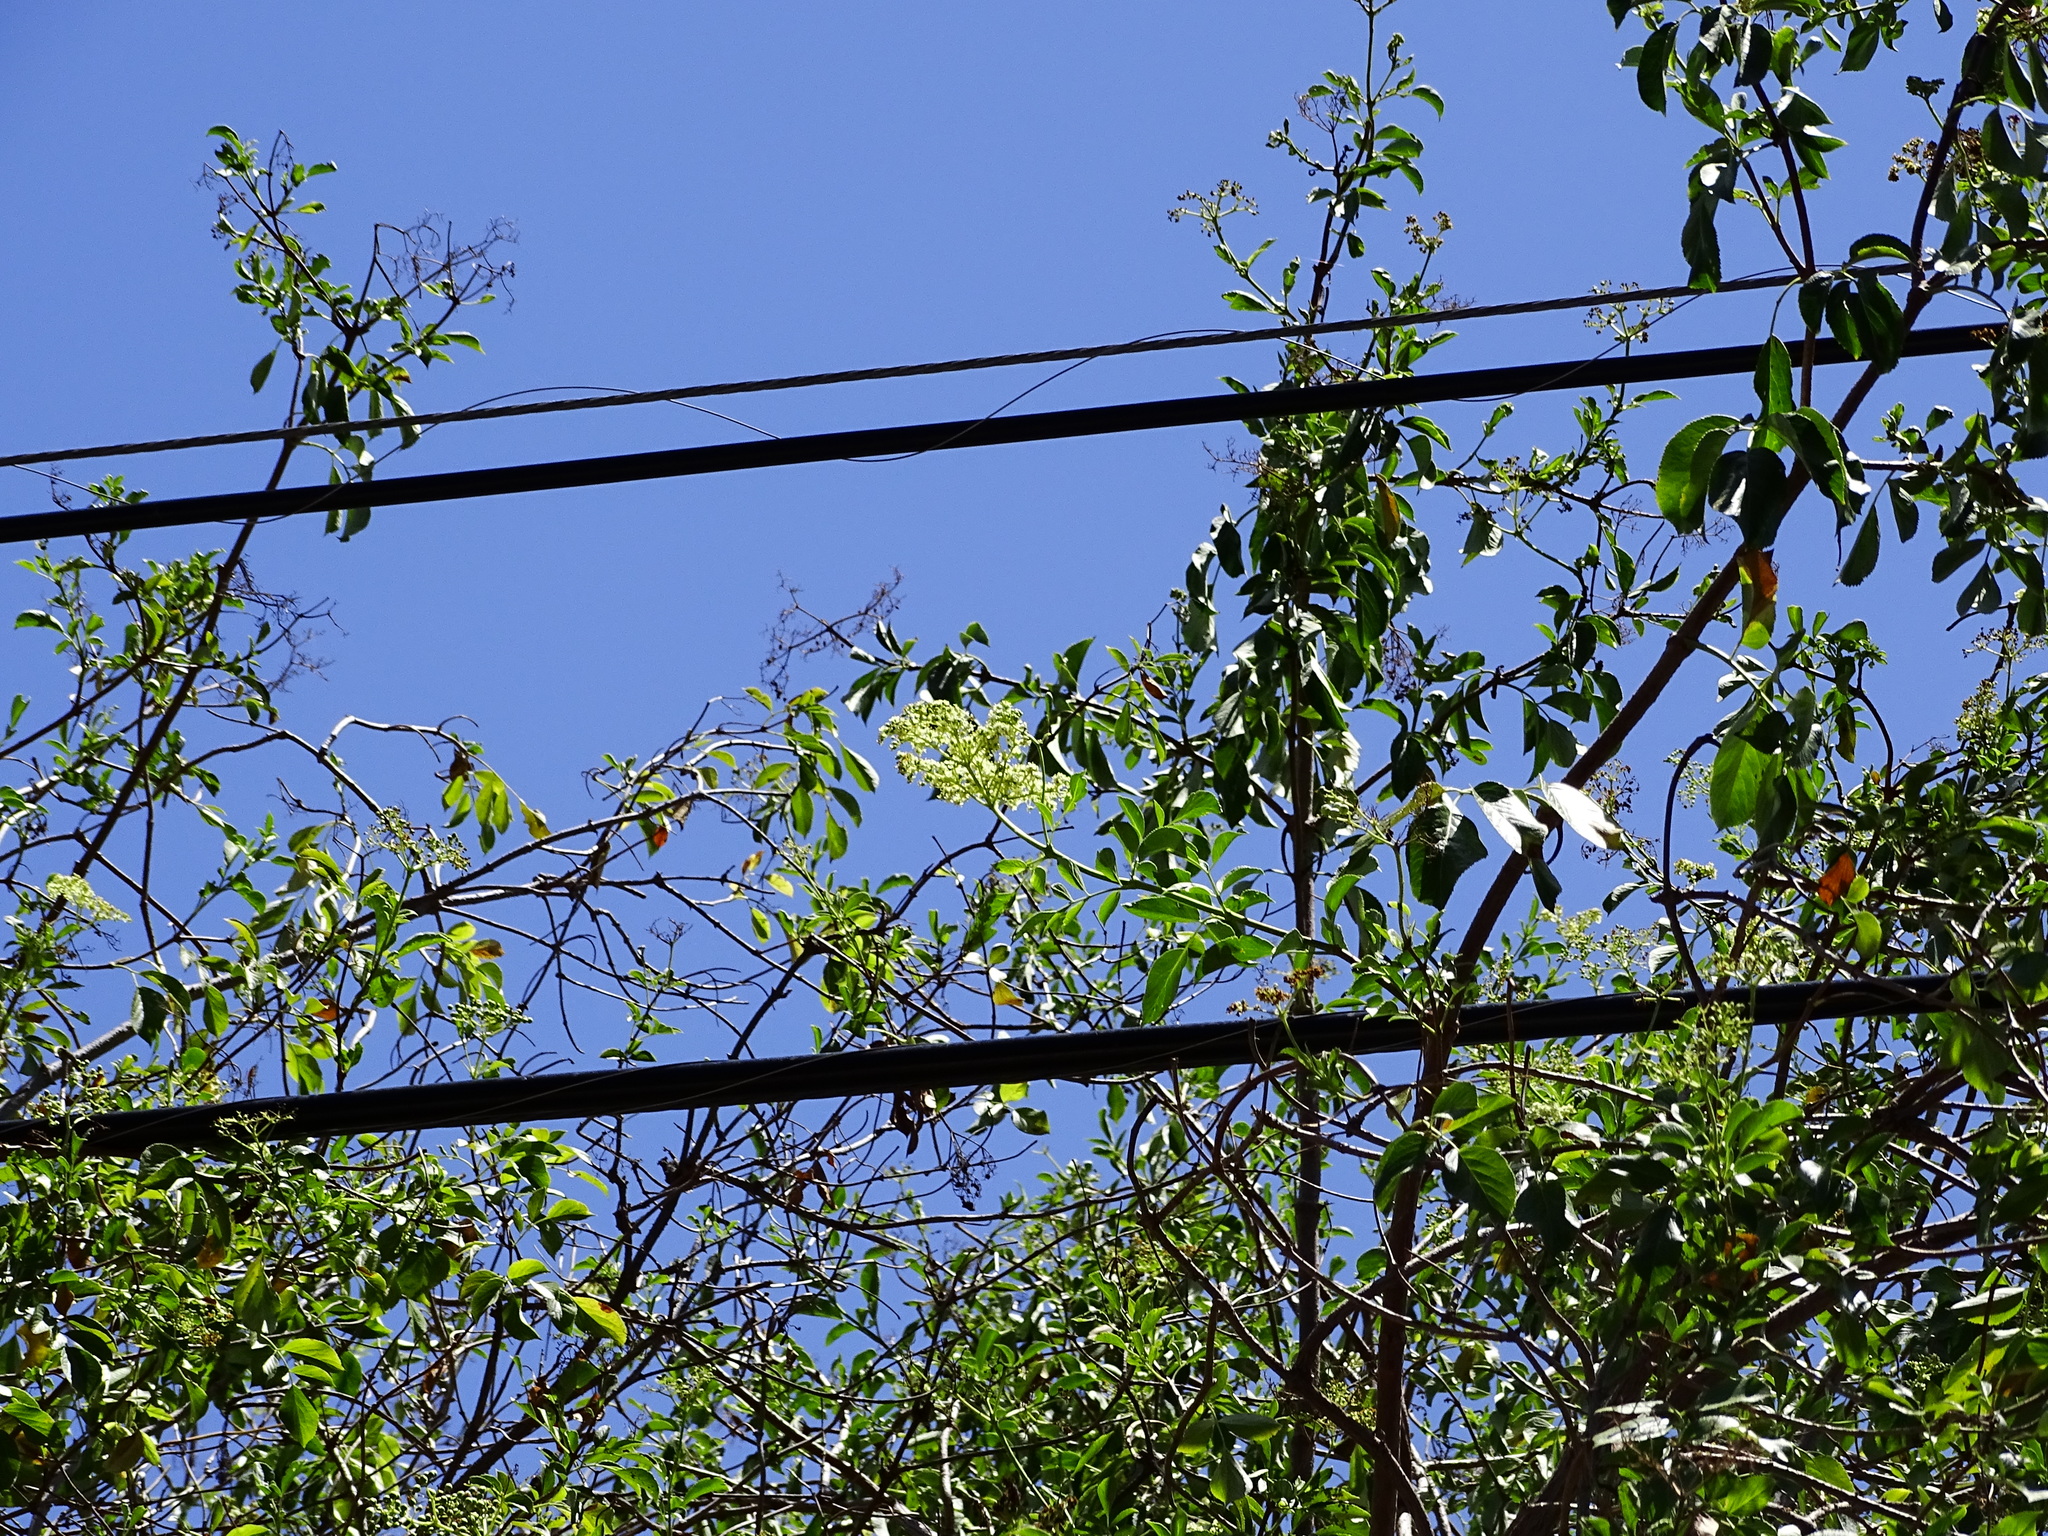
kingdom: Plantae
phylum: Tracheophyta
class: Magnoliopsida
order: Dipsacales
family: Viburnaceae
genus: Sambucus
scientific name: Sambucus cerulea
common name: Blue elder
